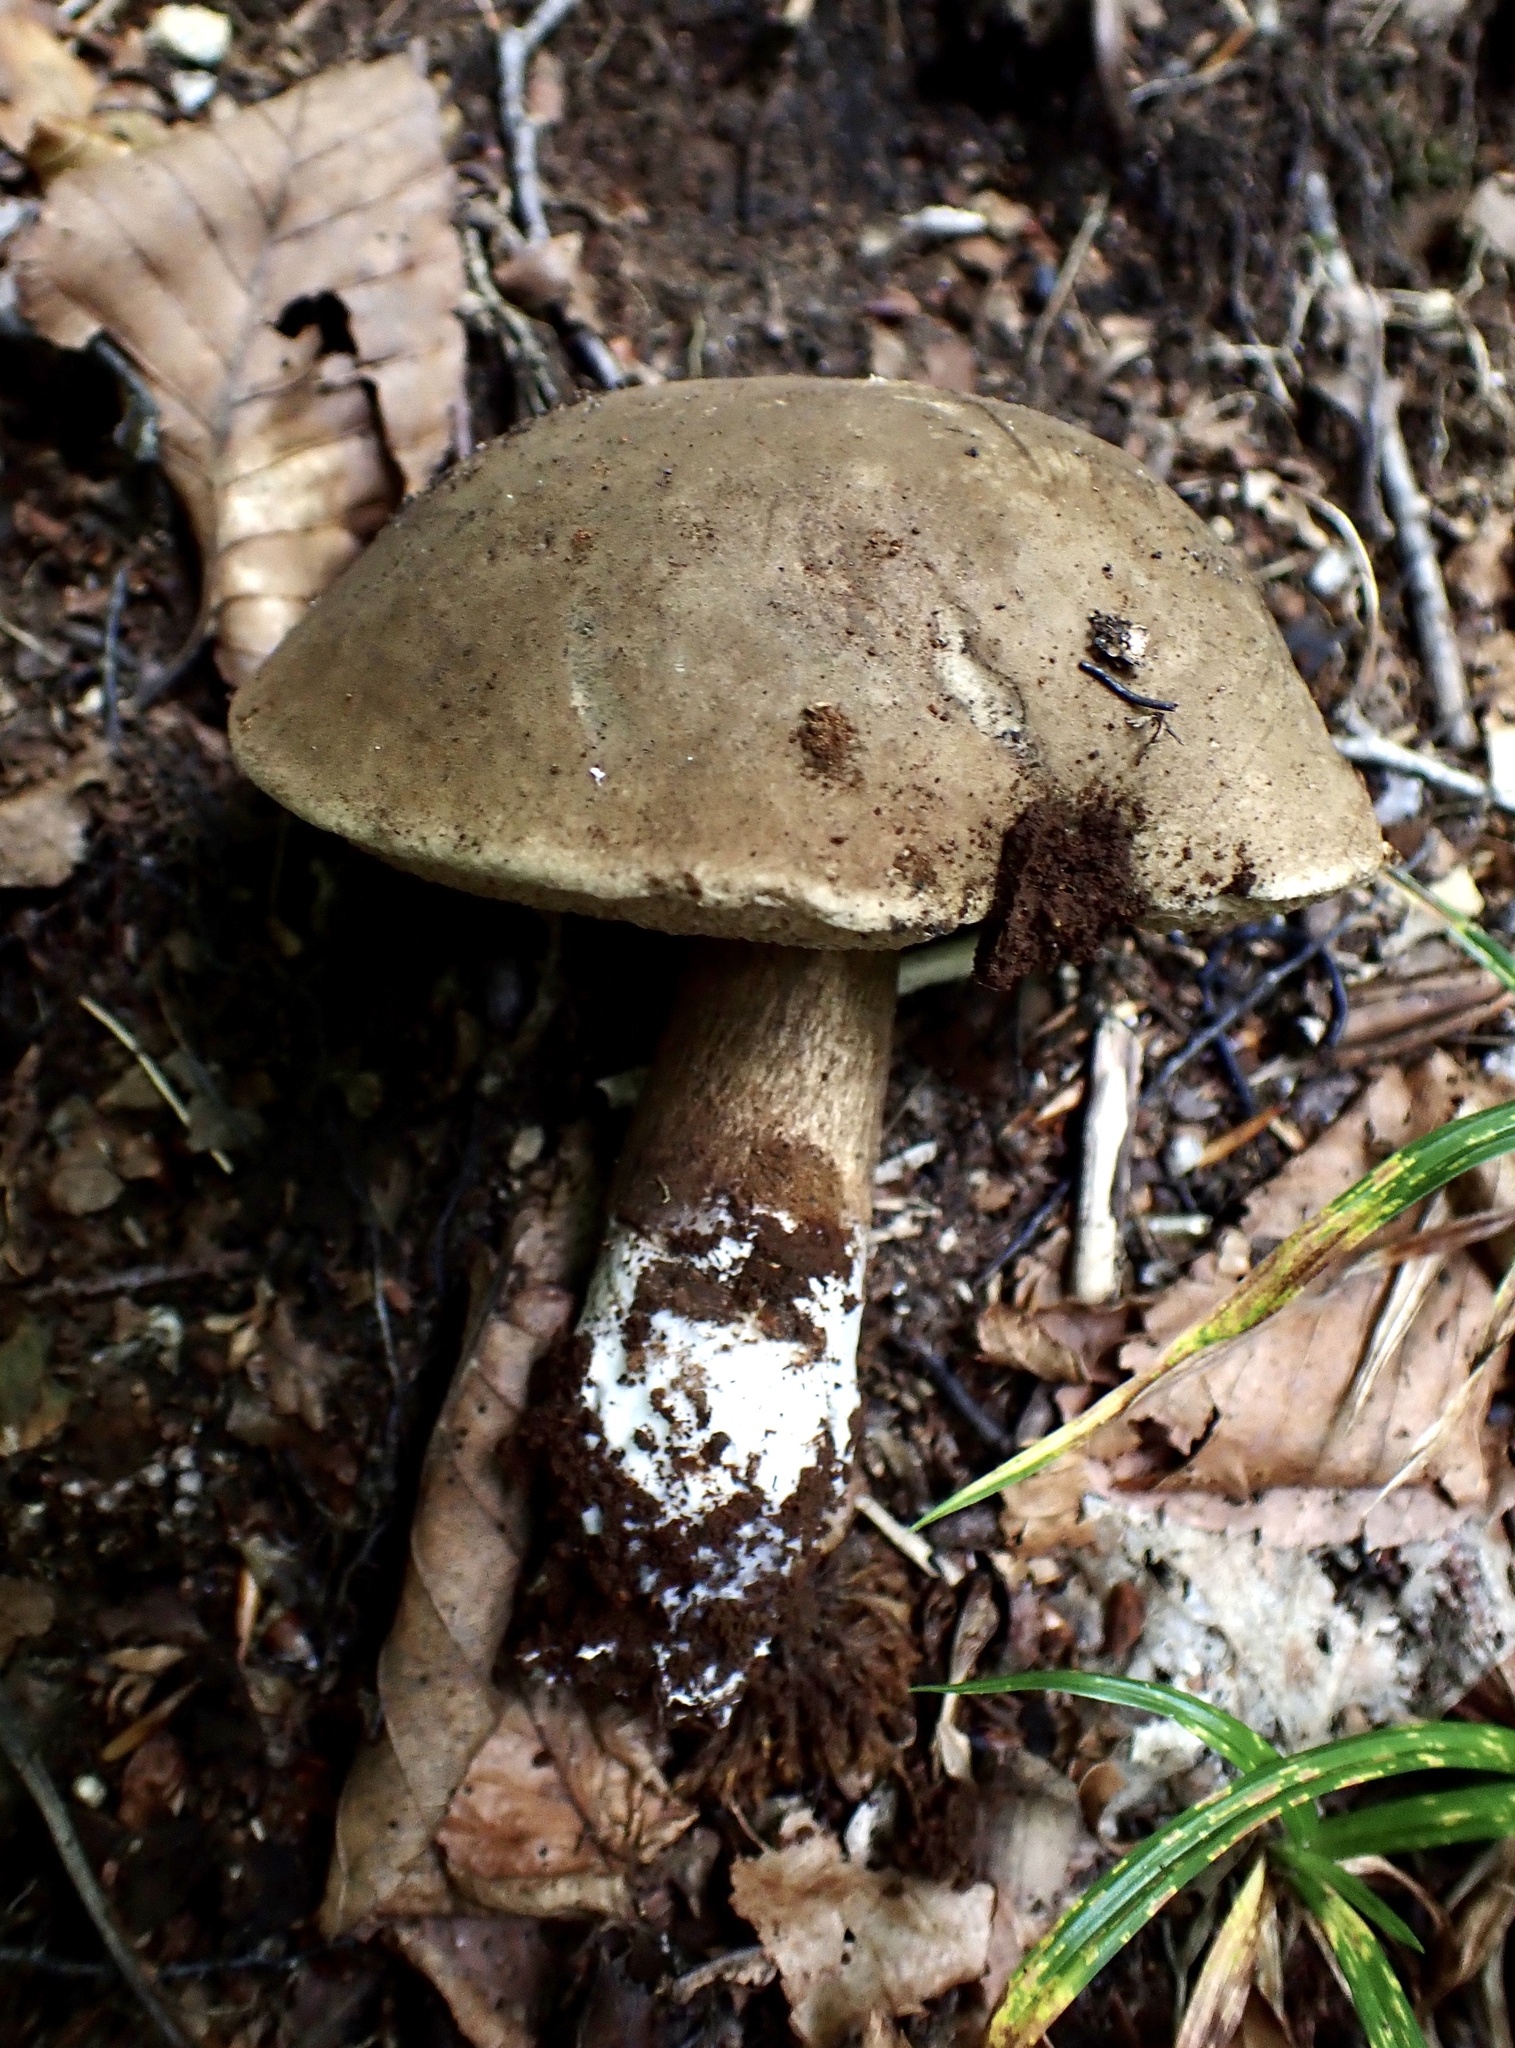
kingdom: Fungi
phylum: Basidiomycota
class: Agaricomycetes
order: Boletales
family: Boletaceae
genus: Porphyrellus
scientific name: Porphyrellus porphyrosporus
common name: Dusky bolete
